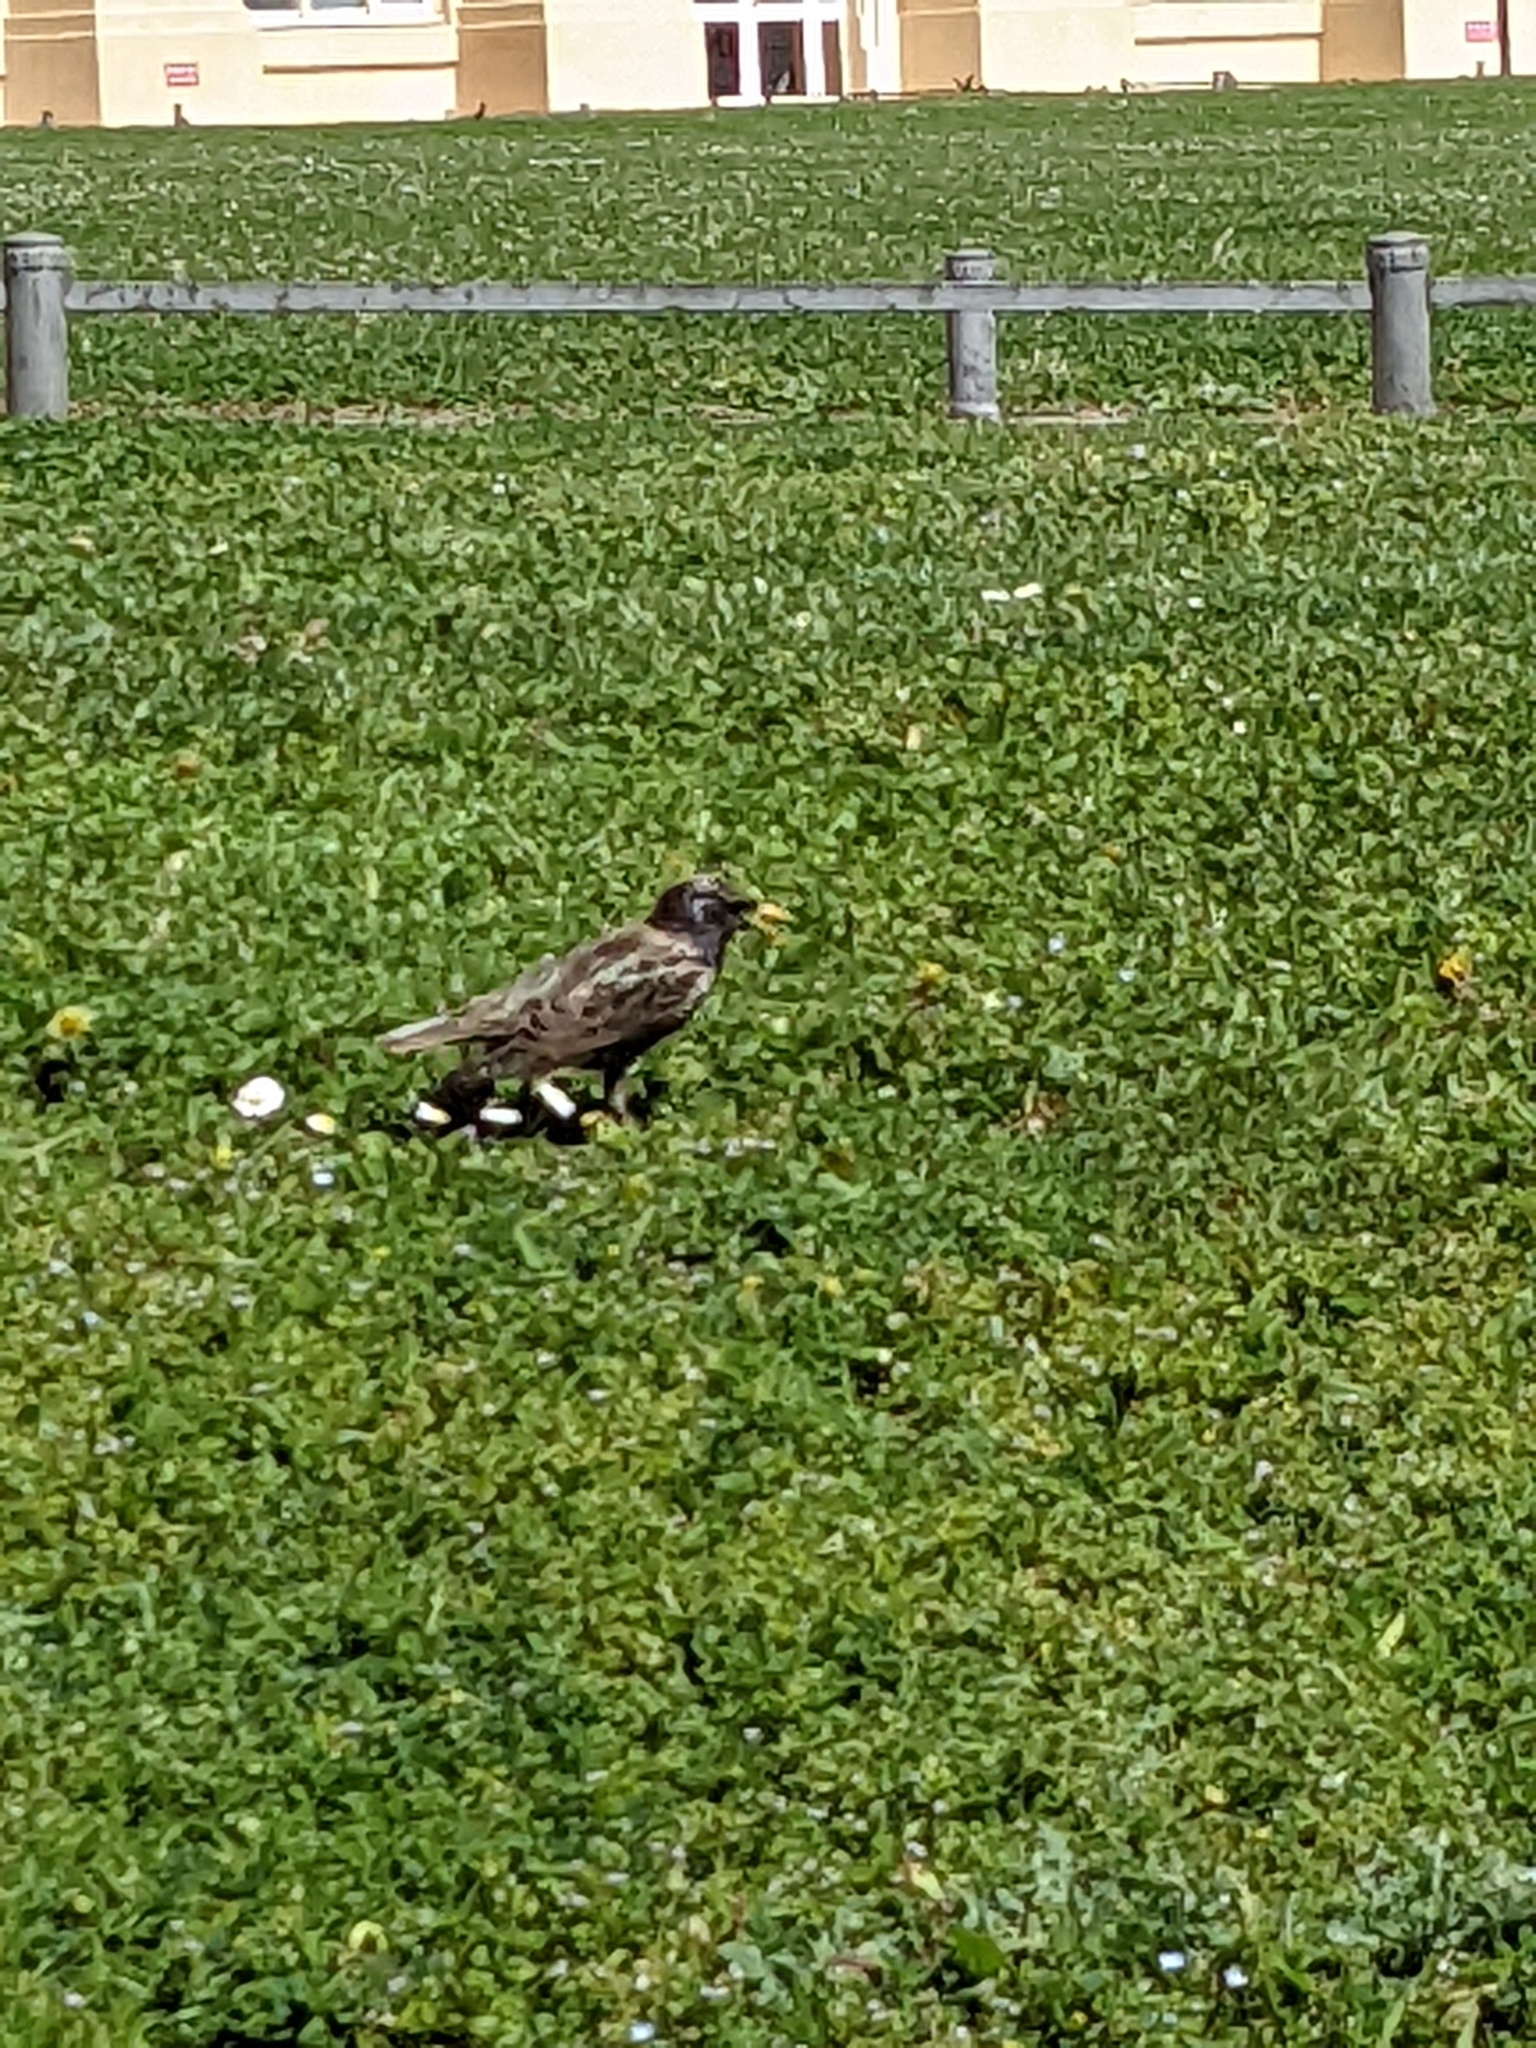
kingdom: Animalia
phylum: Chordata
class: Aves
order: Passeriformes
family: Sturnidae
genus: Sturnus
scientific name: Sturnus vulgaris
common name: Common starling
